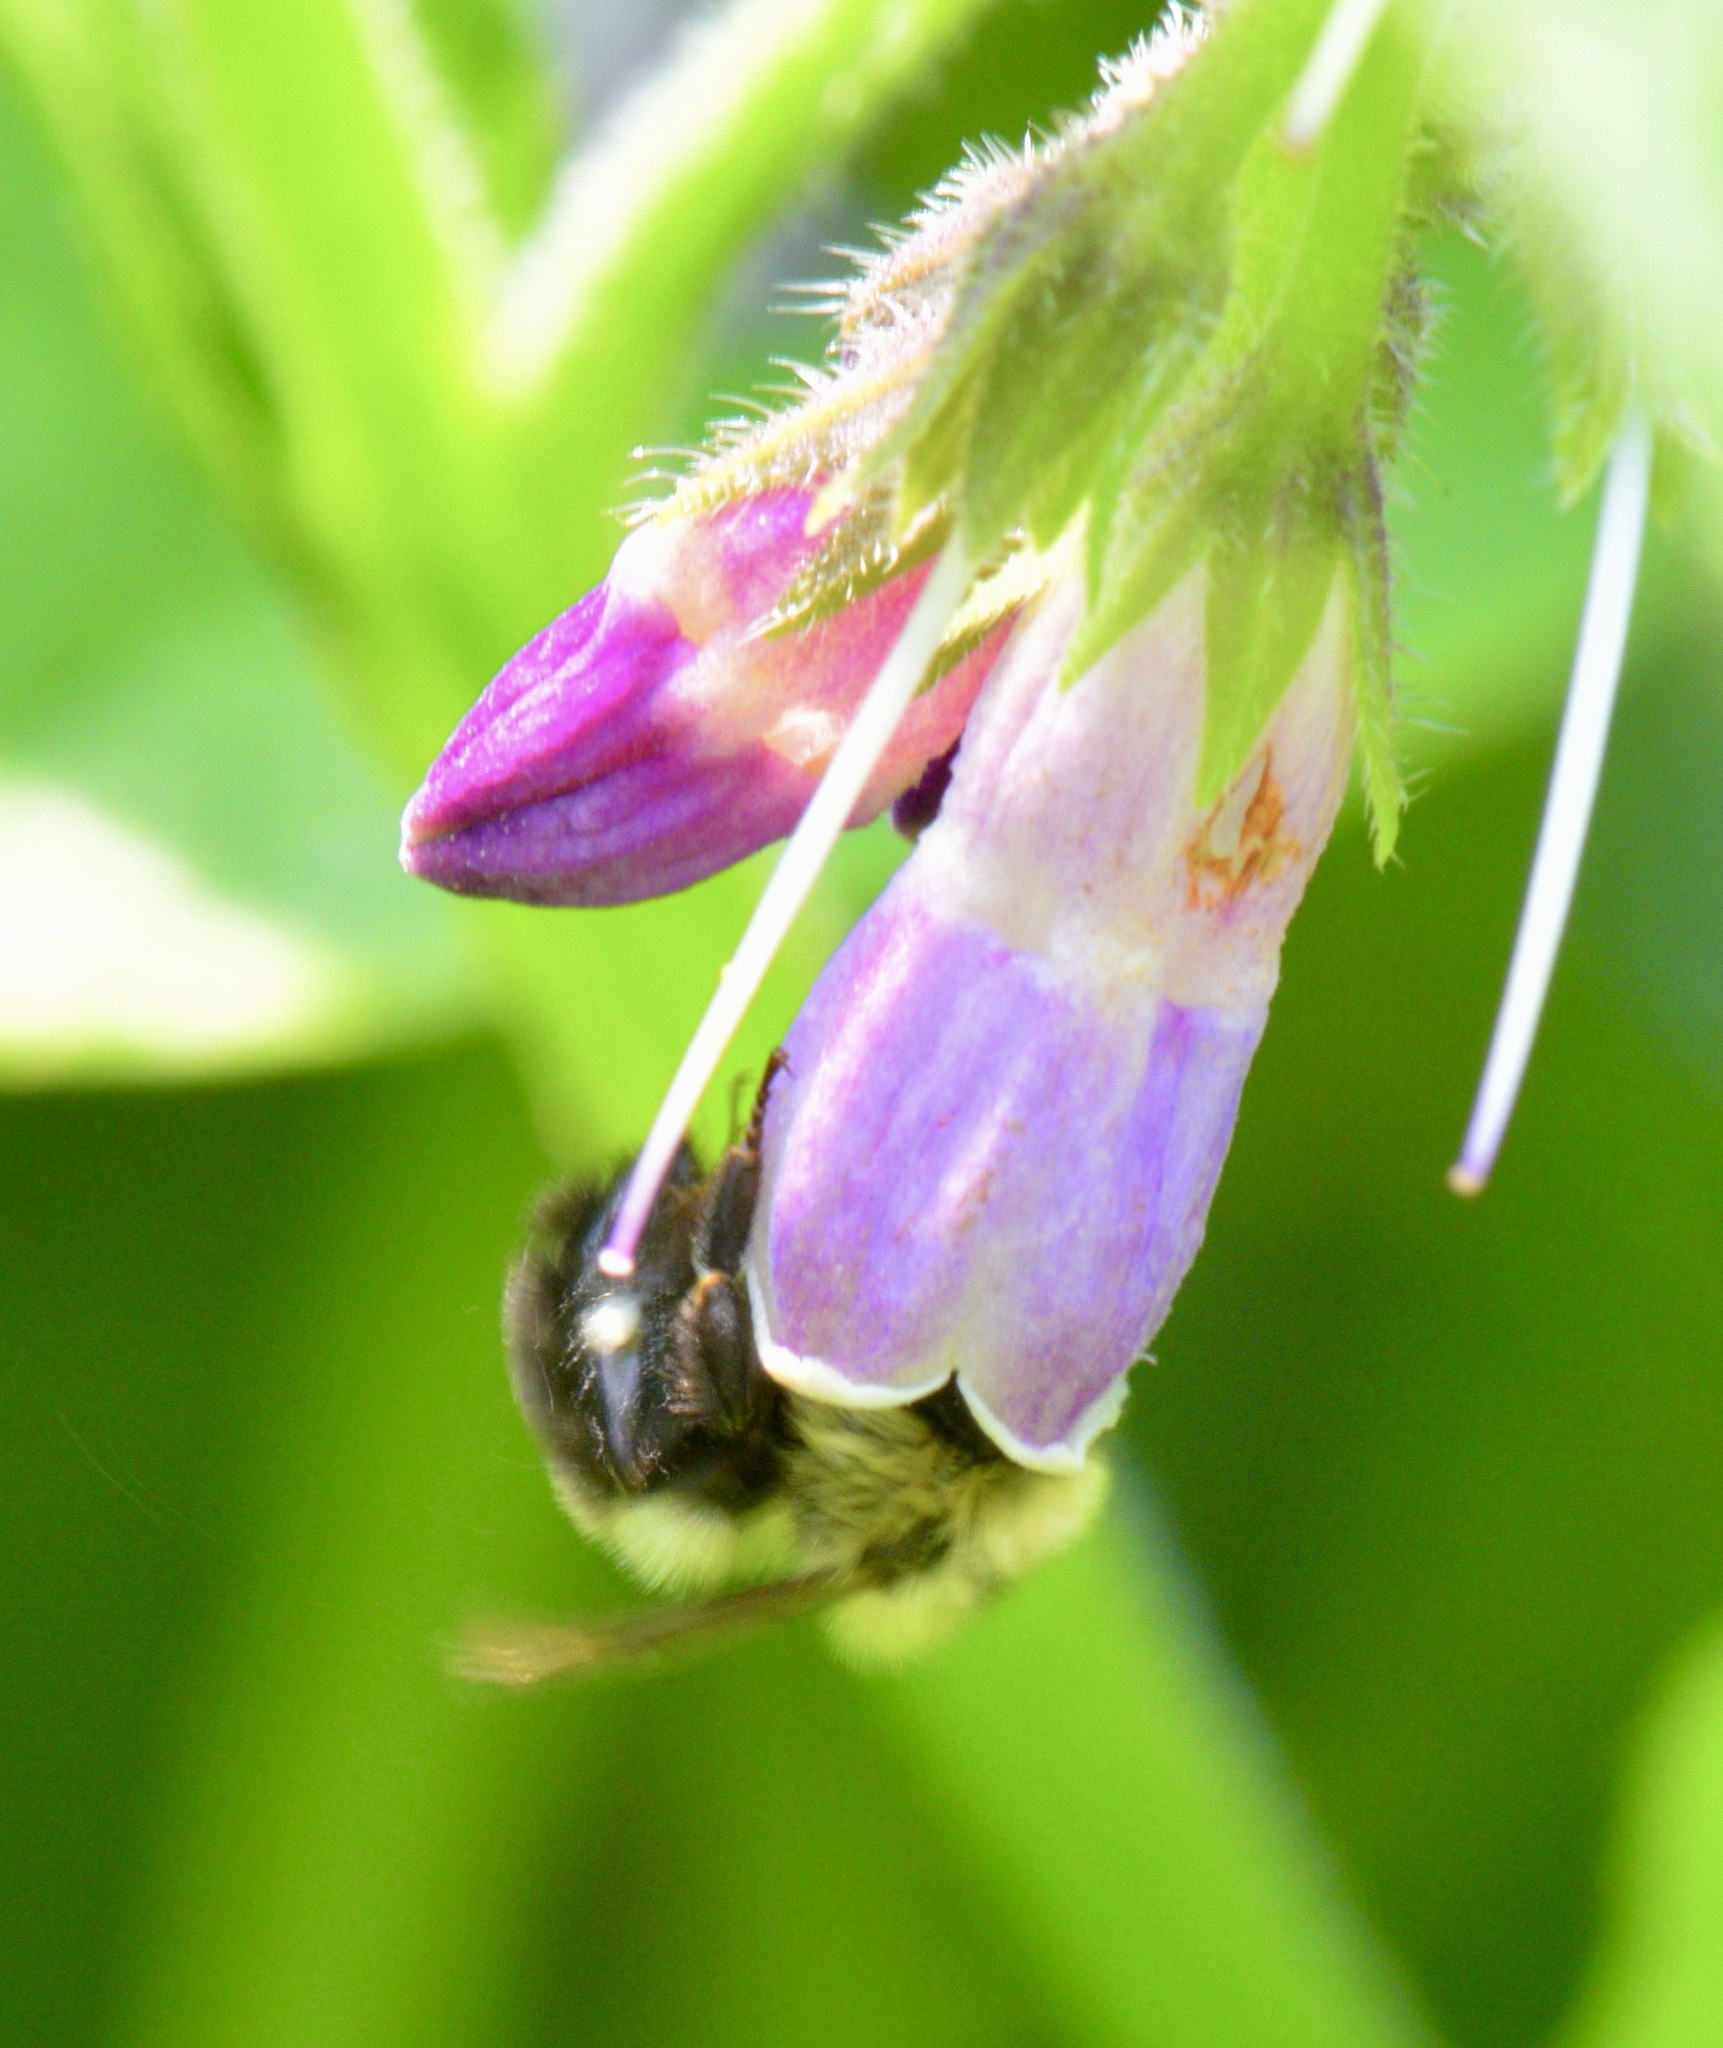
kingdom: Animalia
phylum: Arthropoda
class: Insecta
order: Hymenoptera
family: Apidae
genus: Bombus
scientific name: Bombus bimaculatus
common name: Two-spotted bumble bee
